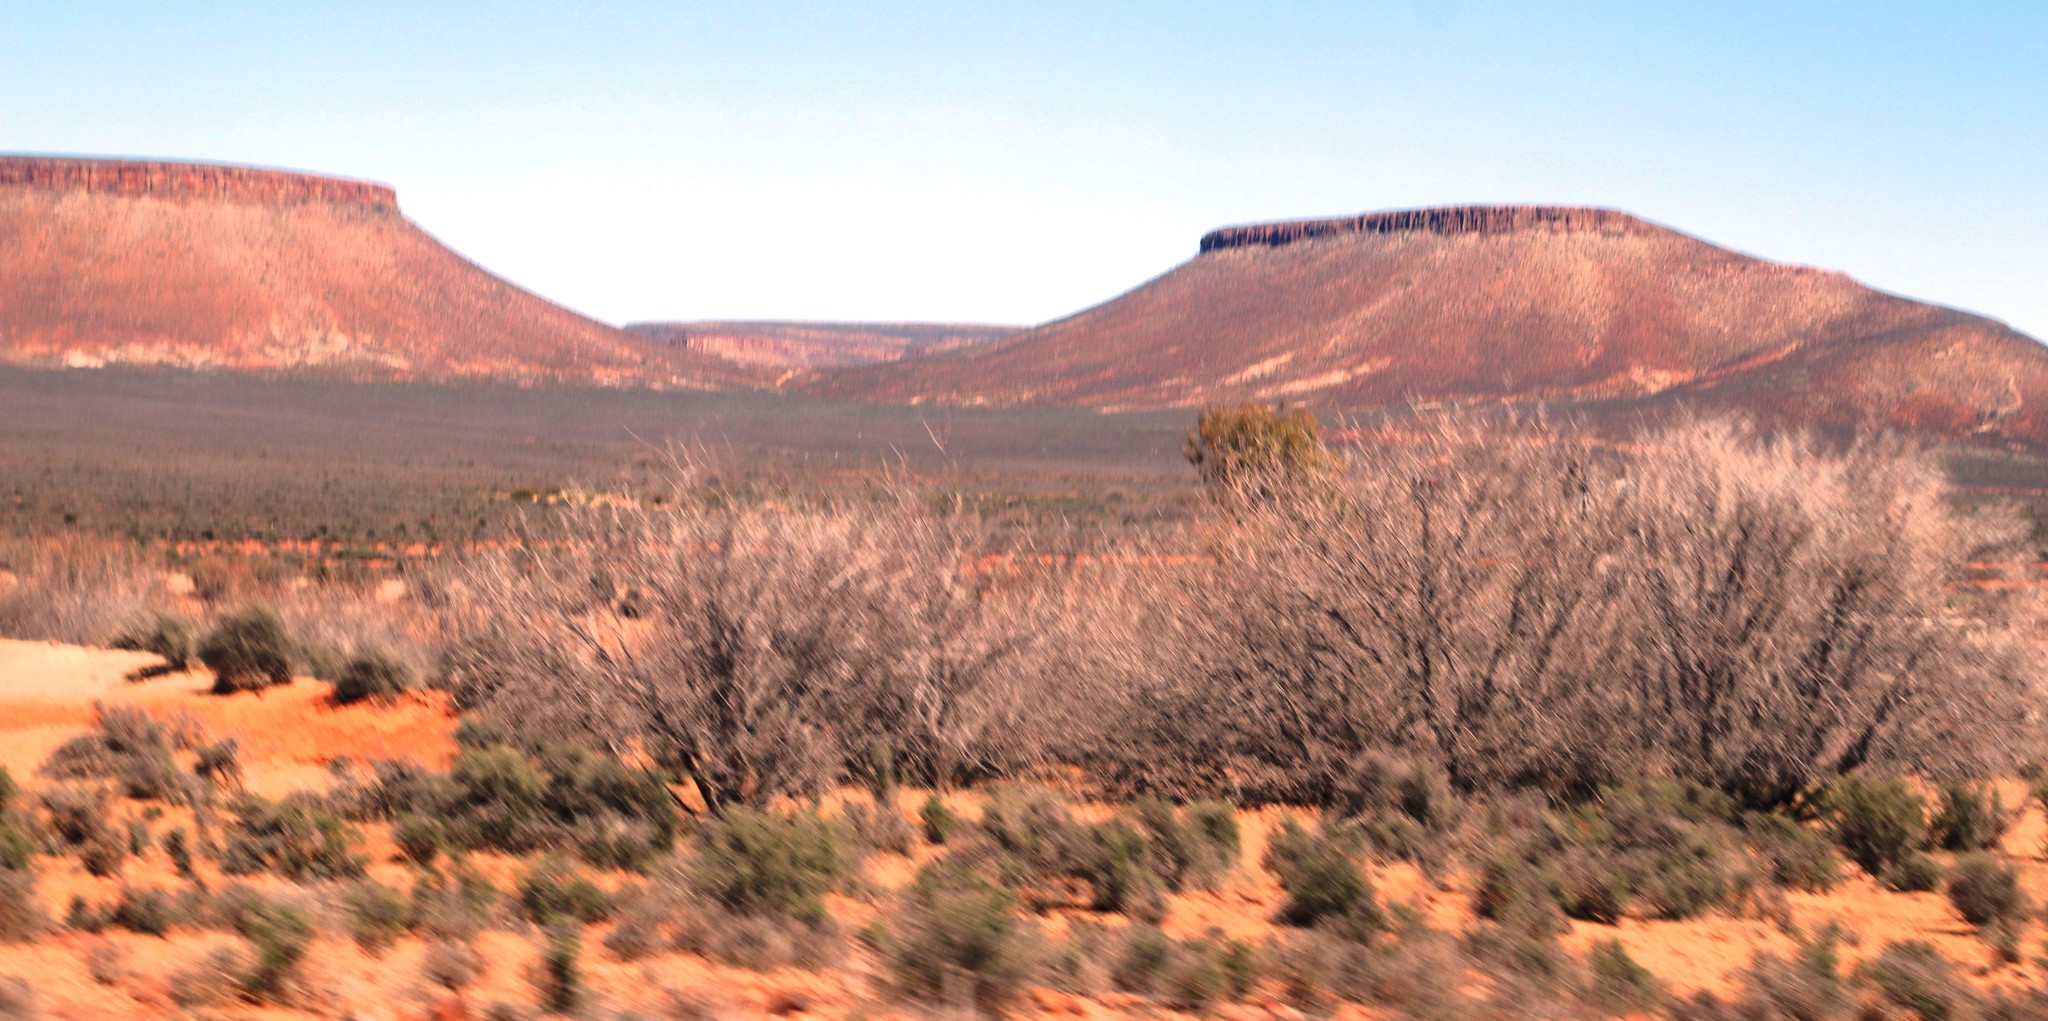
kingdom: Plantae
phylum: Tracheophyta
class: Magnoliopsida
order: Fabales
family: Fabaceae
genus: Vachellia
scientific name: Vachellia karroo
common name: Sweet thorn
